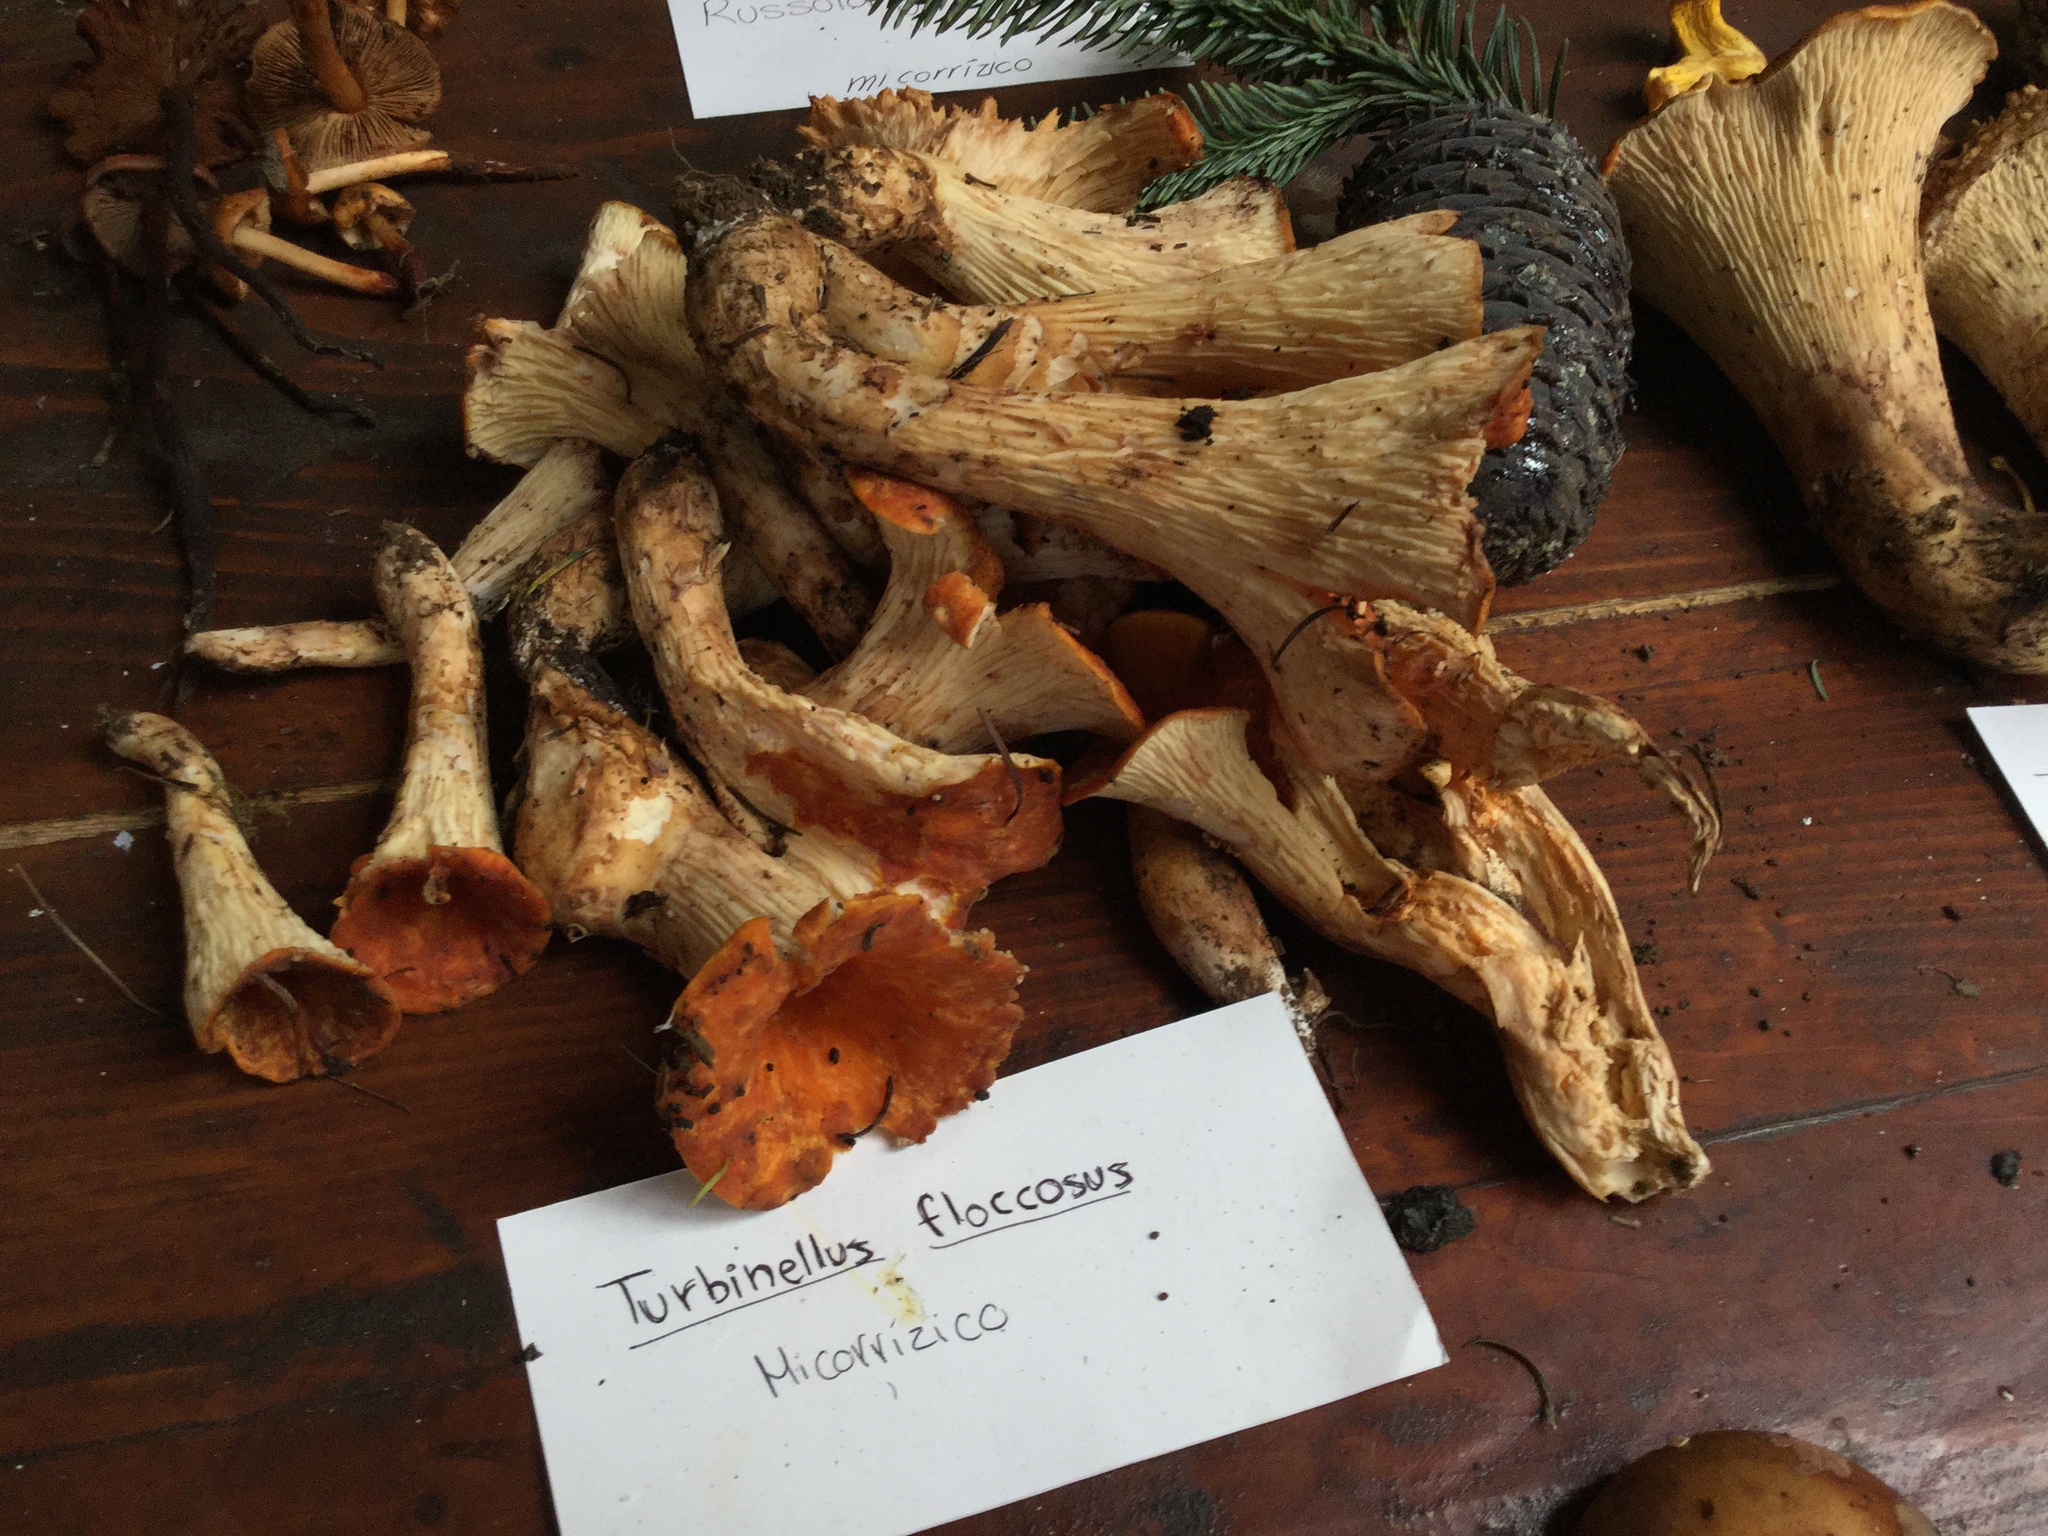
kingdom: Fungi
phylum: Basidiomycota
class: Agaricomycetes
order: Gomphales
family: Gomphaceae
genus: Turbinellus
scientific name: Turbinellus floccosus
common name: Scaly chanterelle
